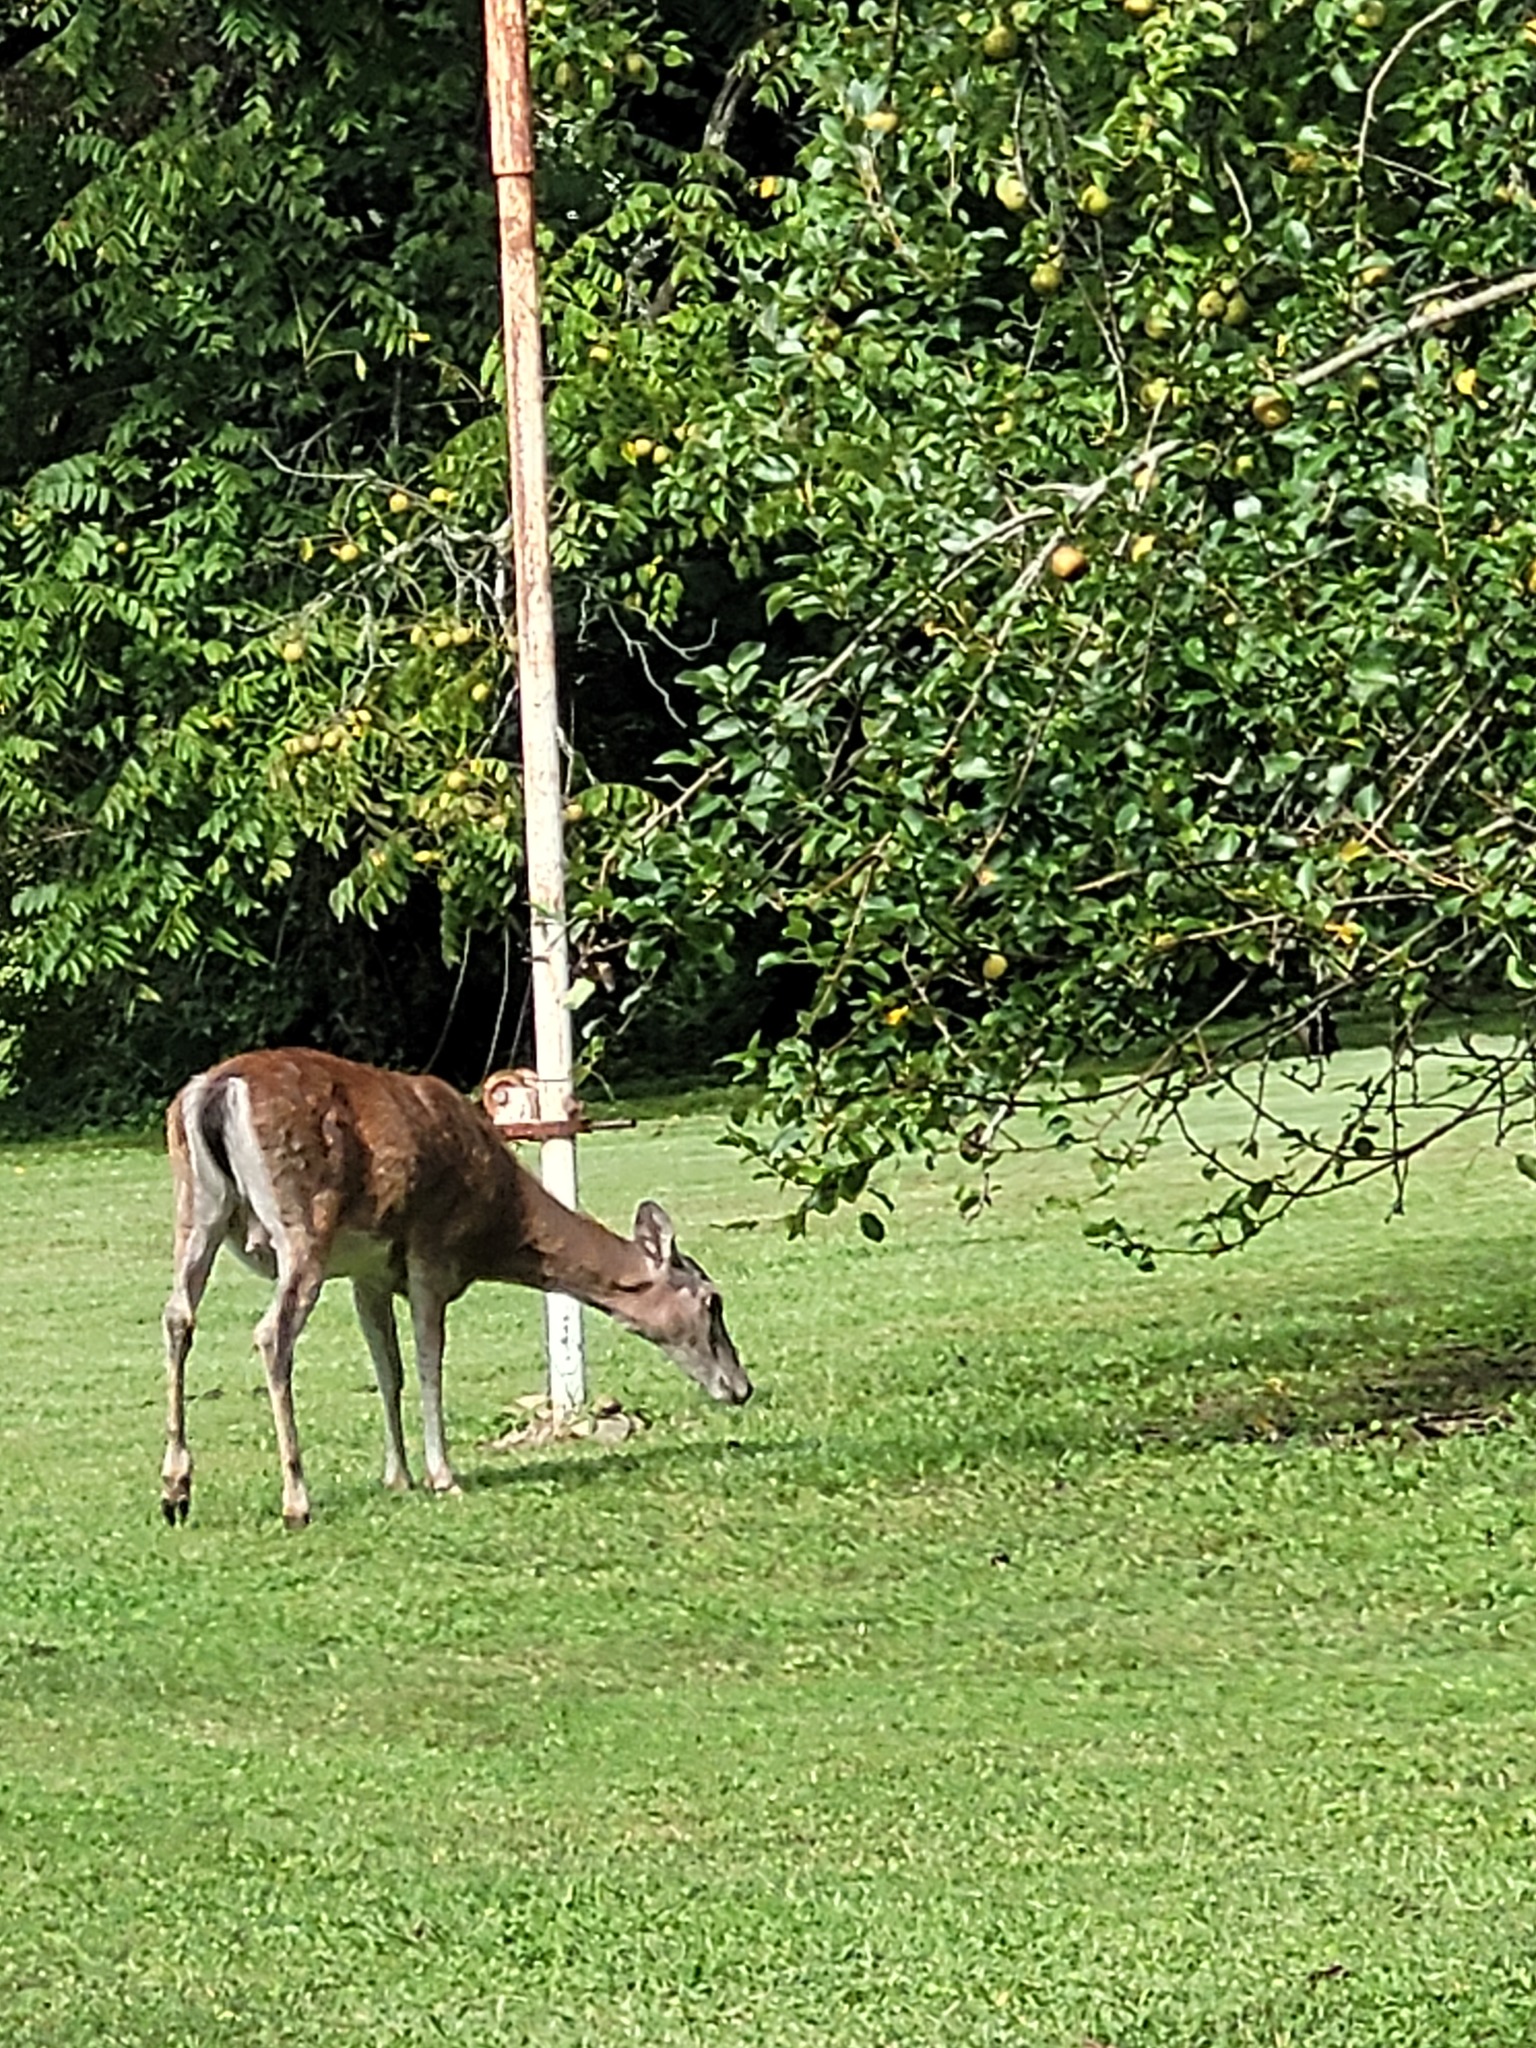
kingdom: Animalia
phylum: Chordata
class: Mammalia
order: Artiodactyla
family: Cervidae
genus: Odocoileus
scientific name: Odocoileus virginianus
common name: White-tailed deer
